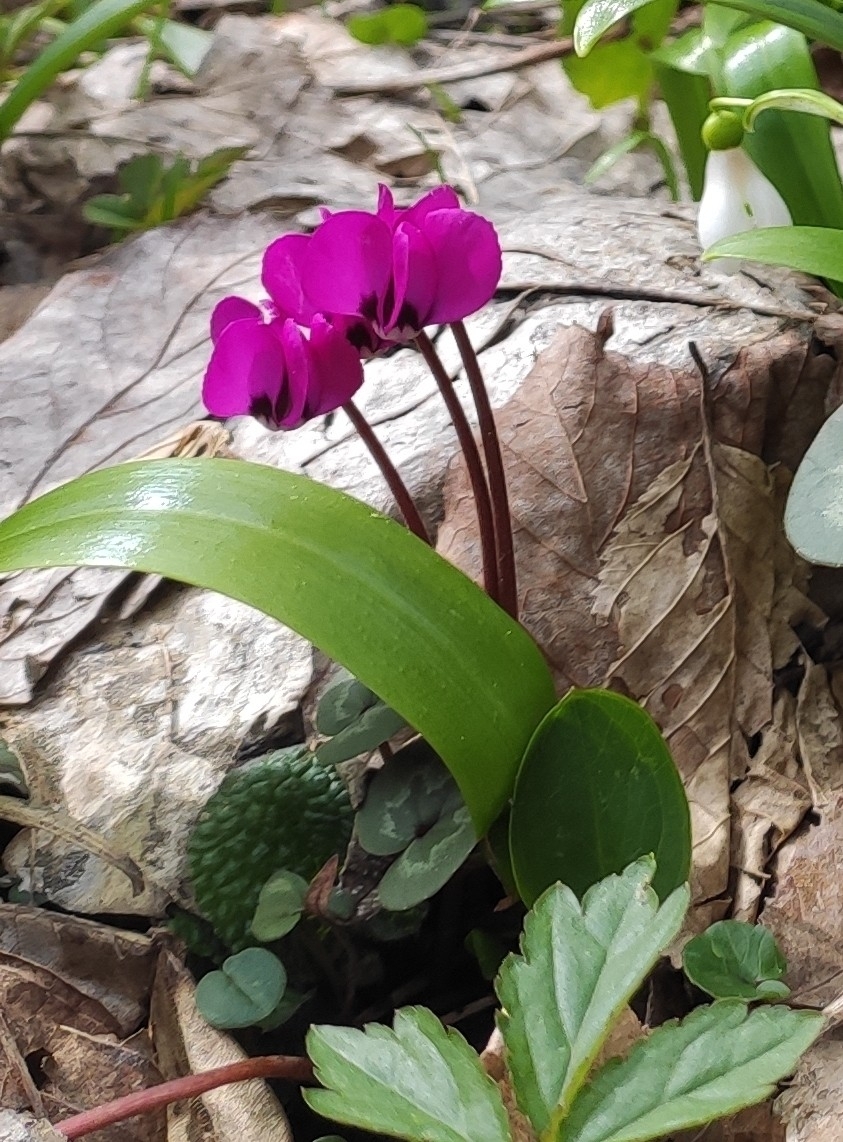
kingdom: Plantae
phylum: Tracheophyta
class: Magnoliopsida
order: Ericales
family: Primulaceae
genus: Cyclamen
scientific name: Cyclamen coum
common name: Eastern sowbread
